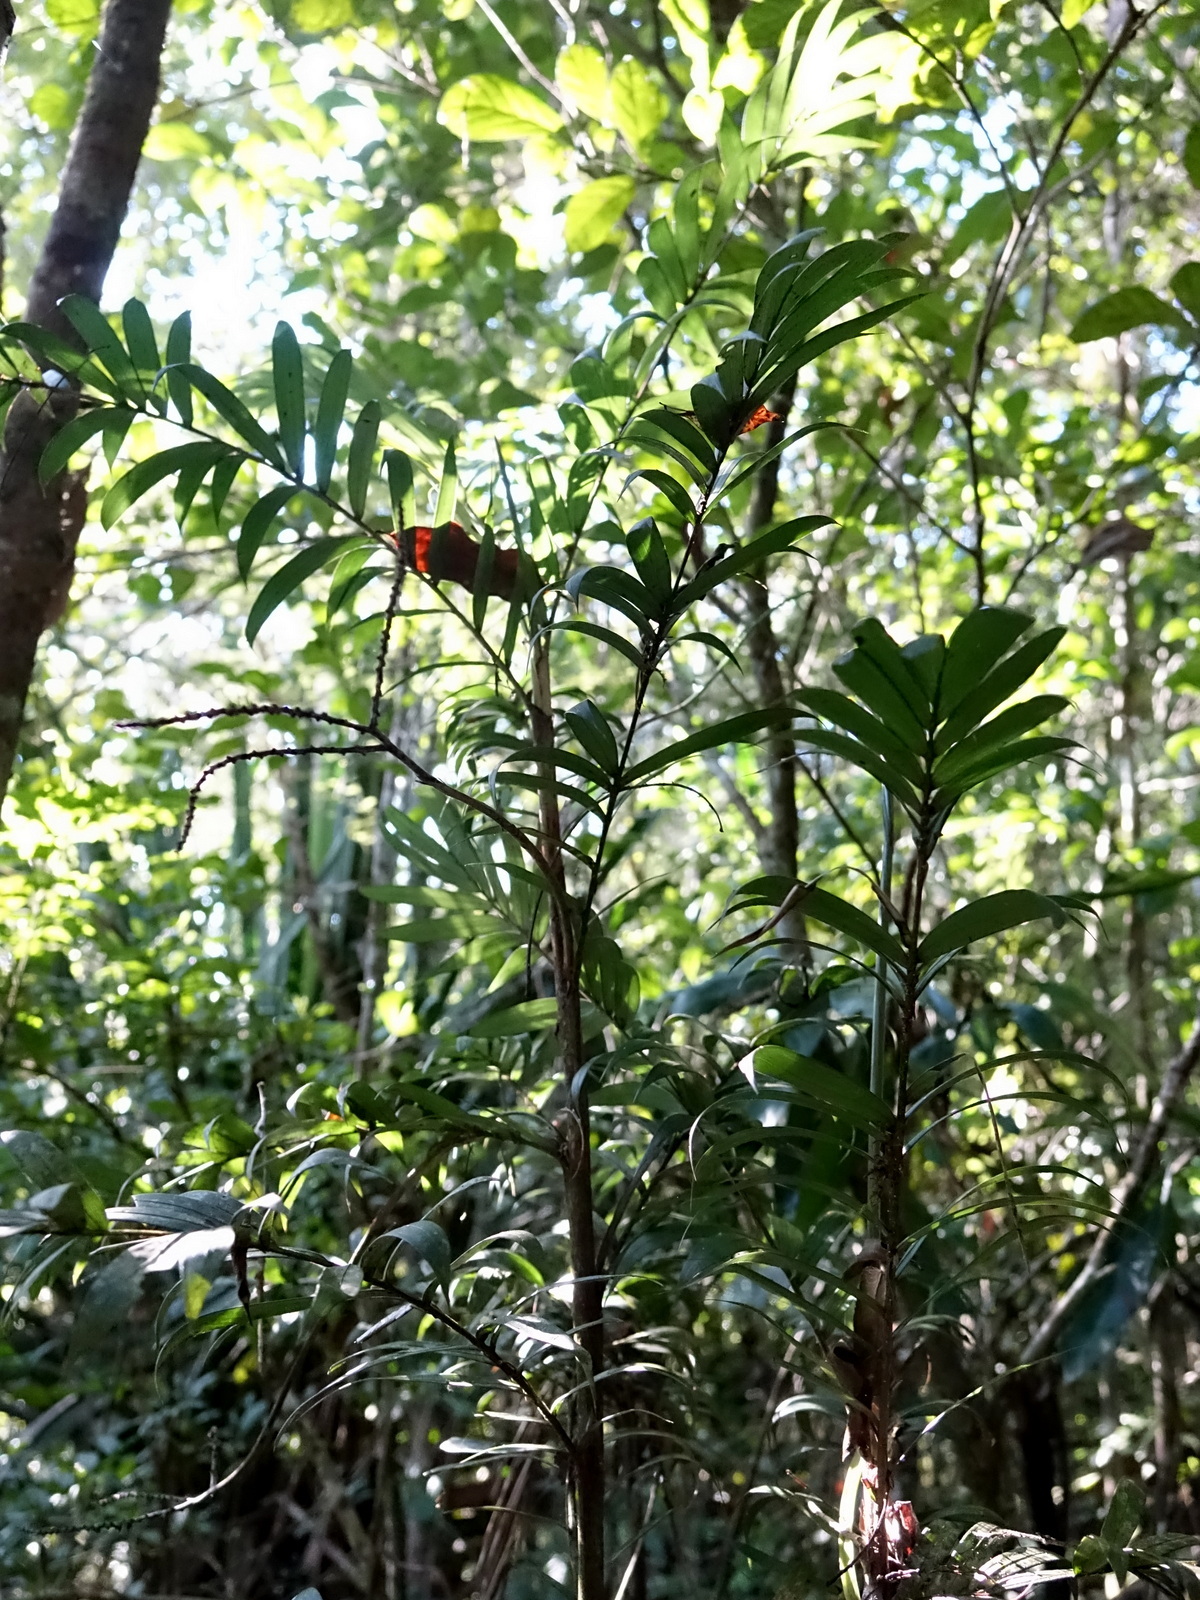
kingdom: Plantae
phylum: Tracheophyta
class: Liliopsida
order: Arecales
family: Arecaceae
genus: Dypsis
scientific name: Dypsis concinna
